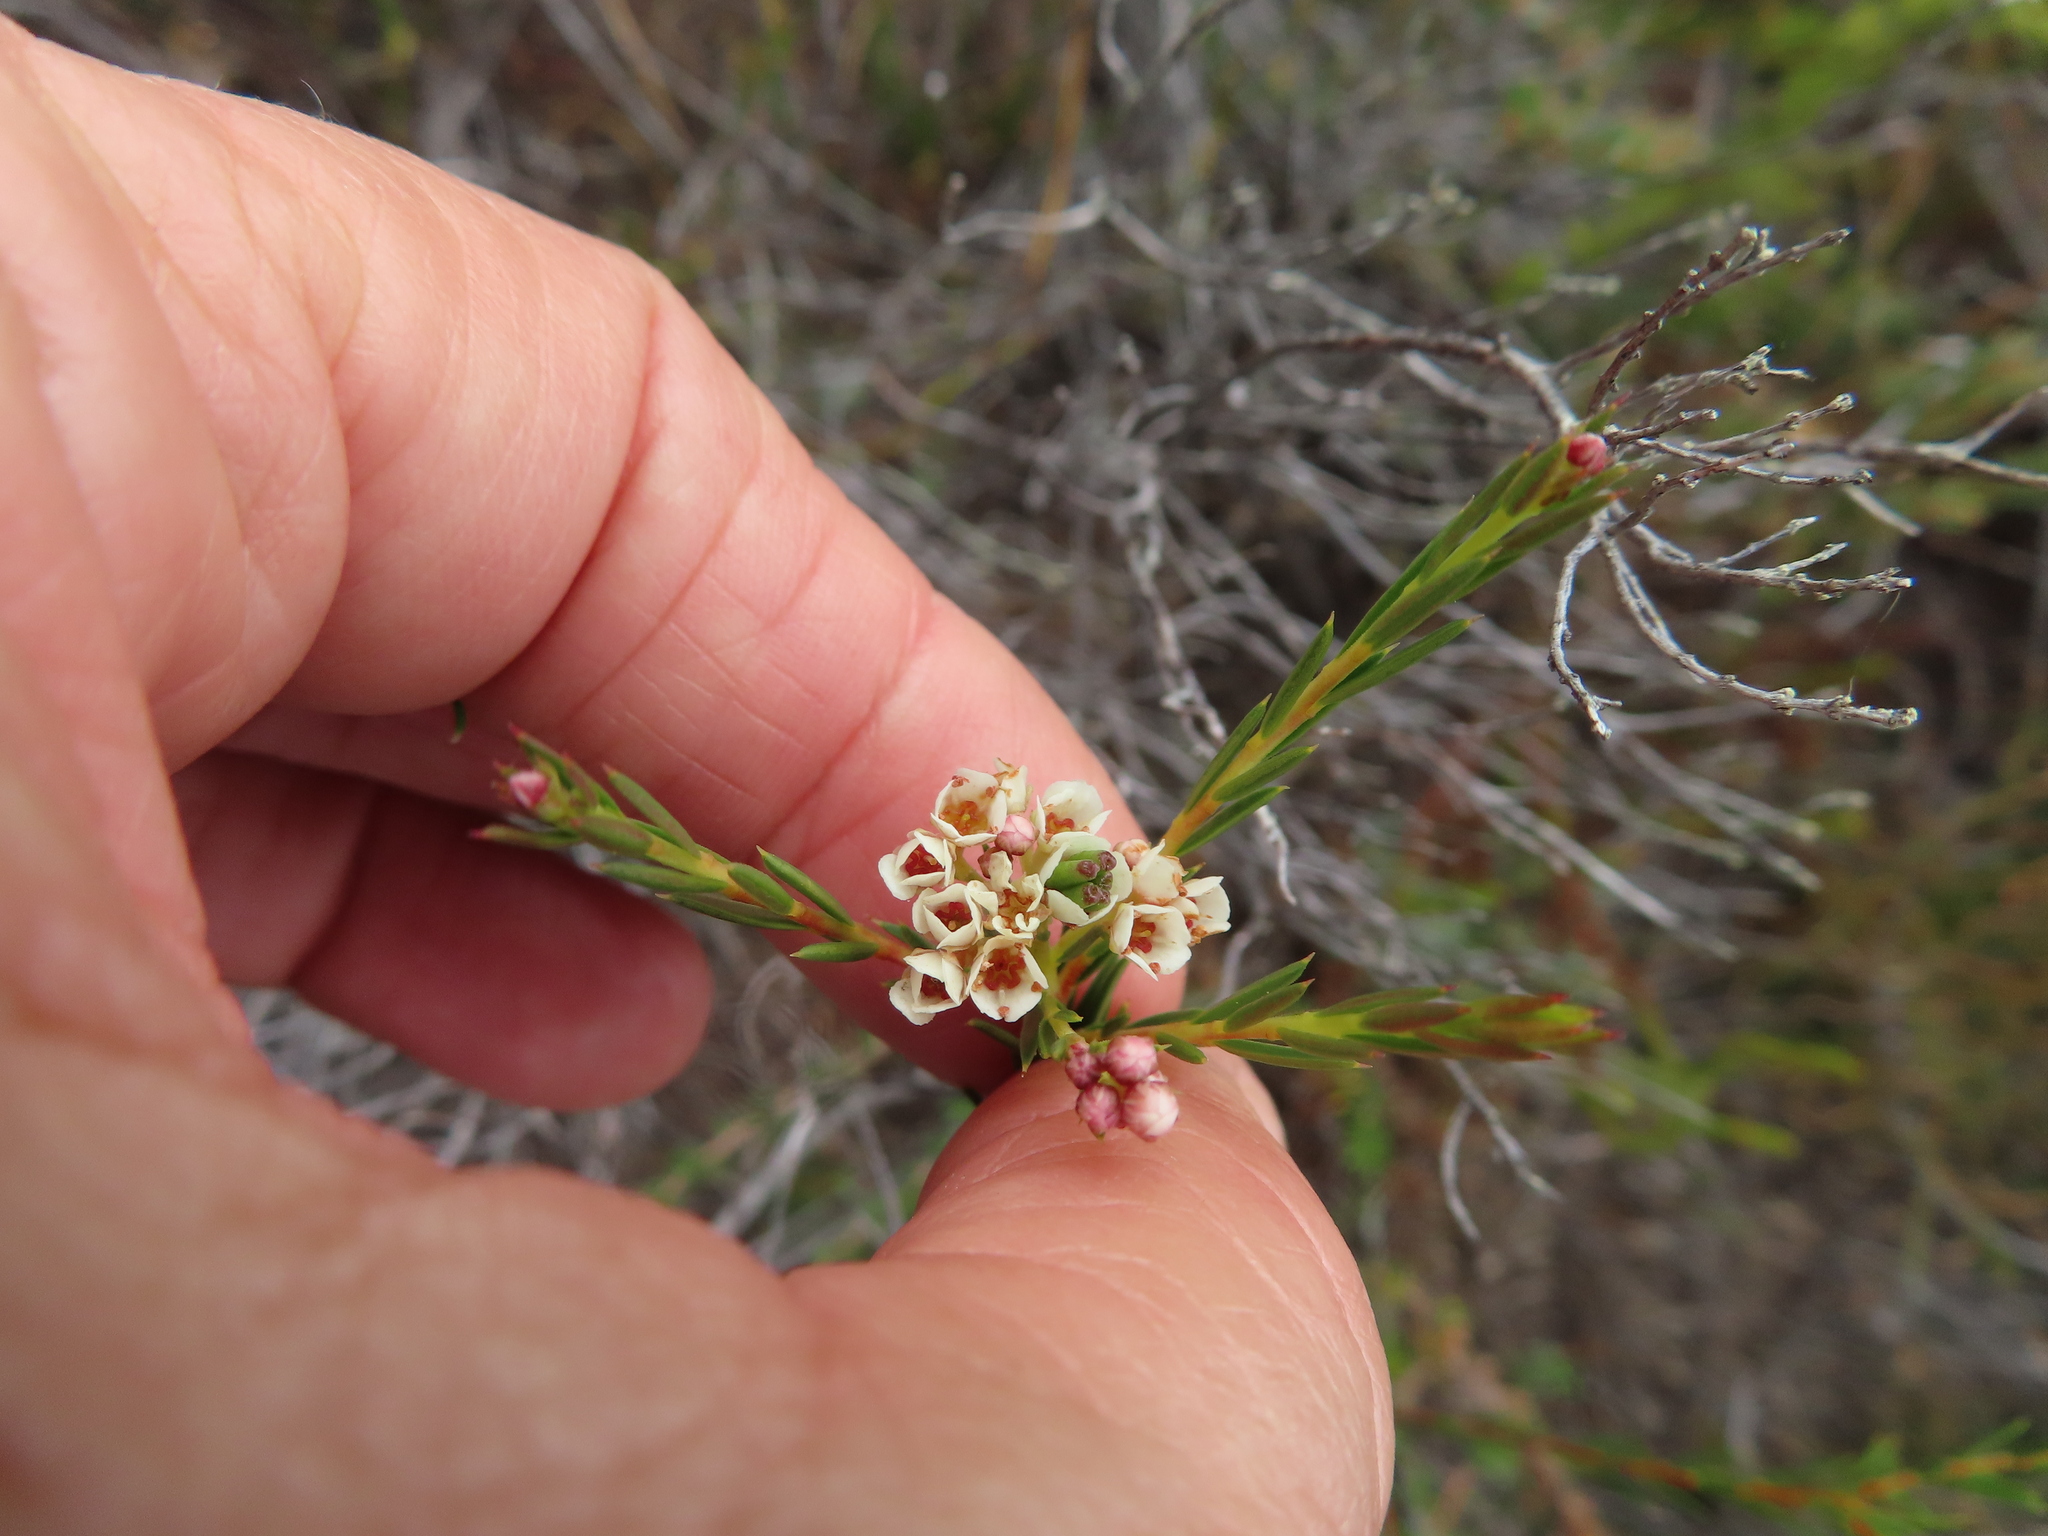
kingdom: Plantae
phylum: Tracheophyta
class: Magnoliopsida
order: Sapindales
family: Rutaceae
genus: Diosma
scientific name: Diosma hirsuta
